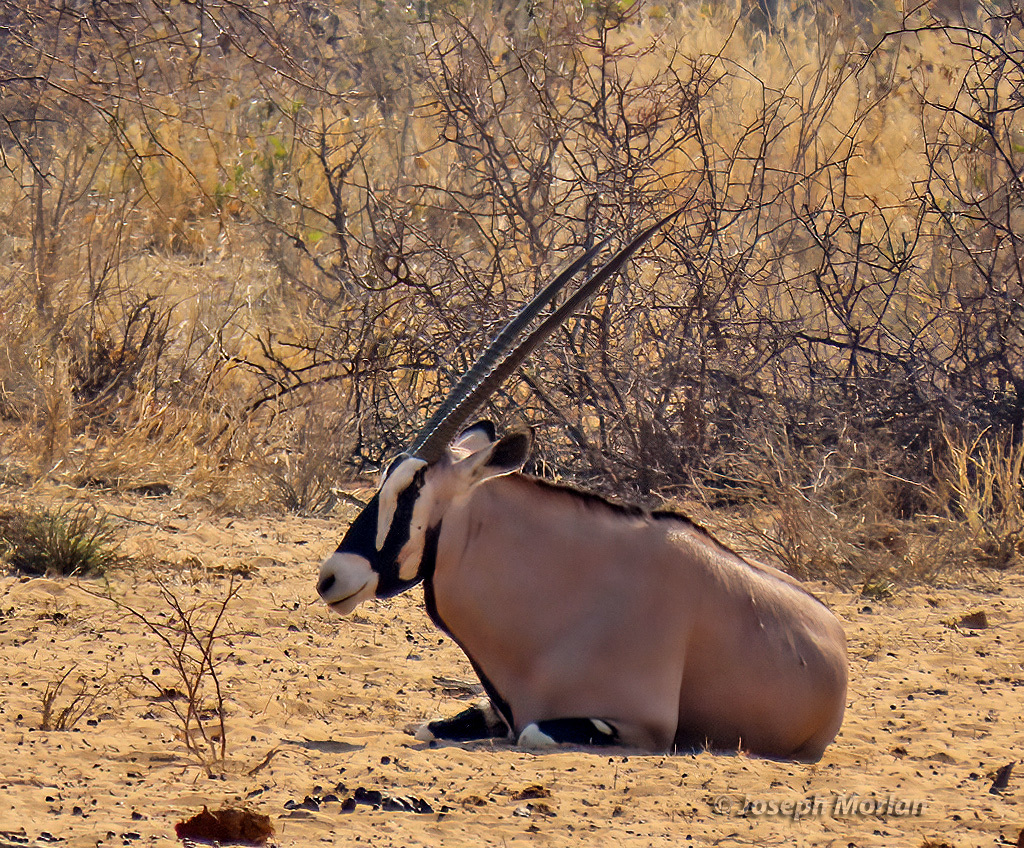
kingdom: Animalia
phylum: Chordata
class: Mammalia
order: Artiodactyla
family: Bovidae
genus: Oryx
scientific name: Oryx gazella
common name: Gemsbok
